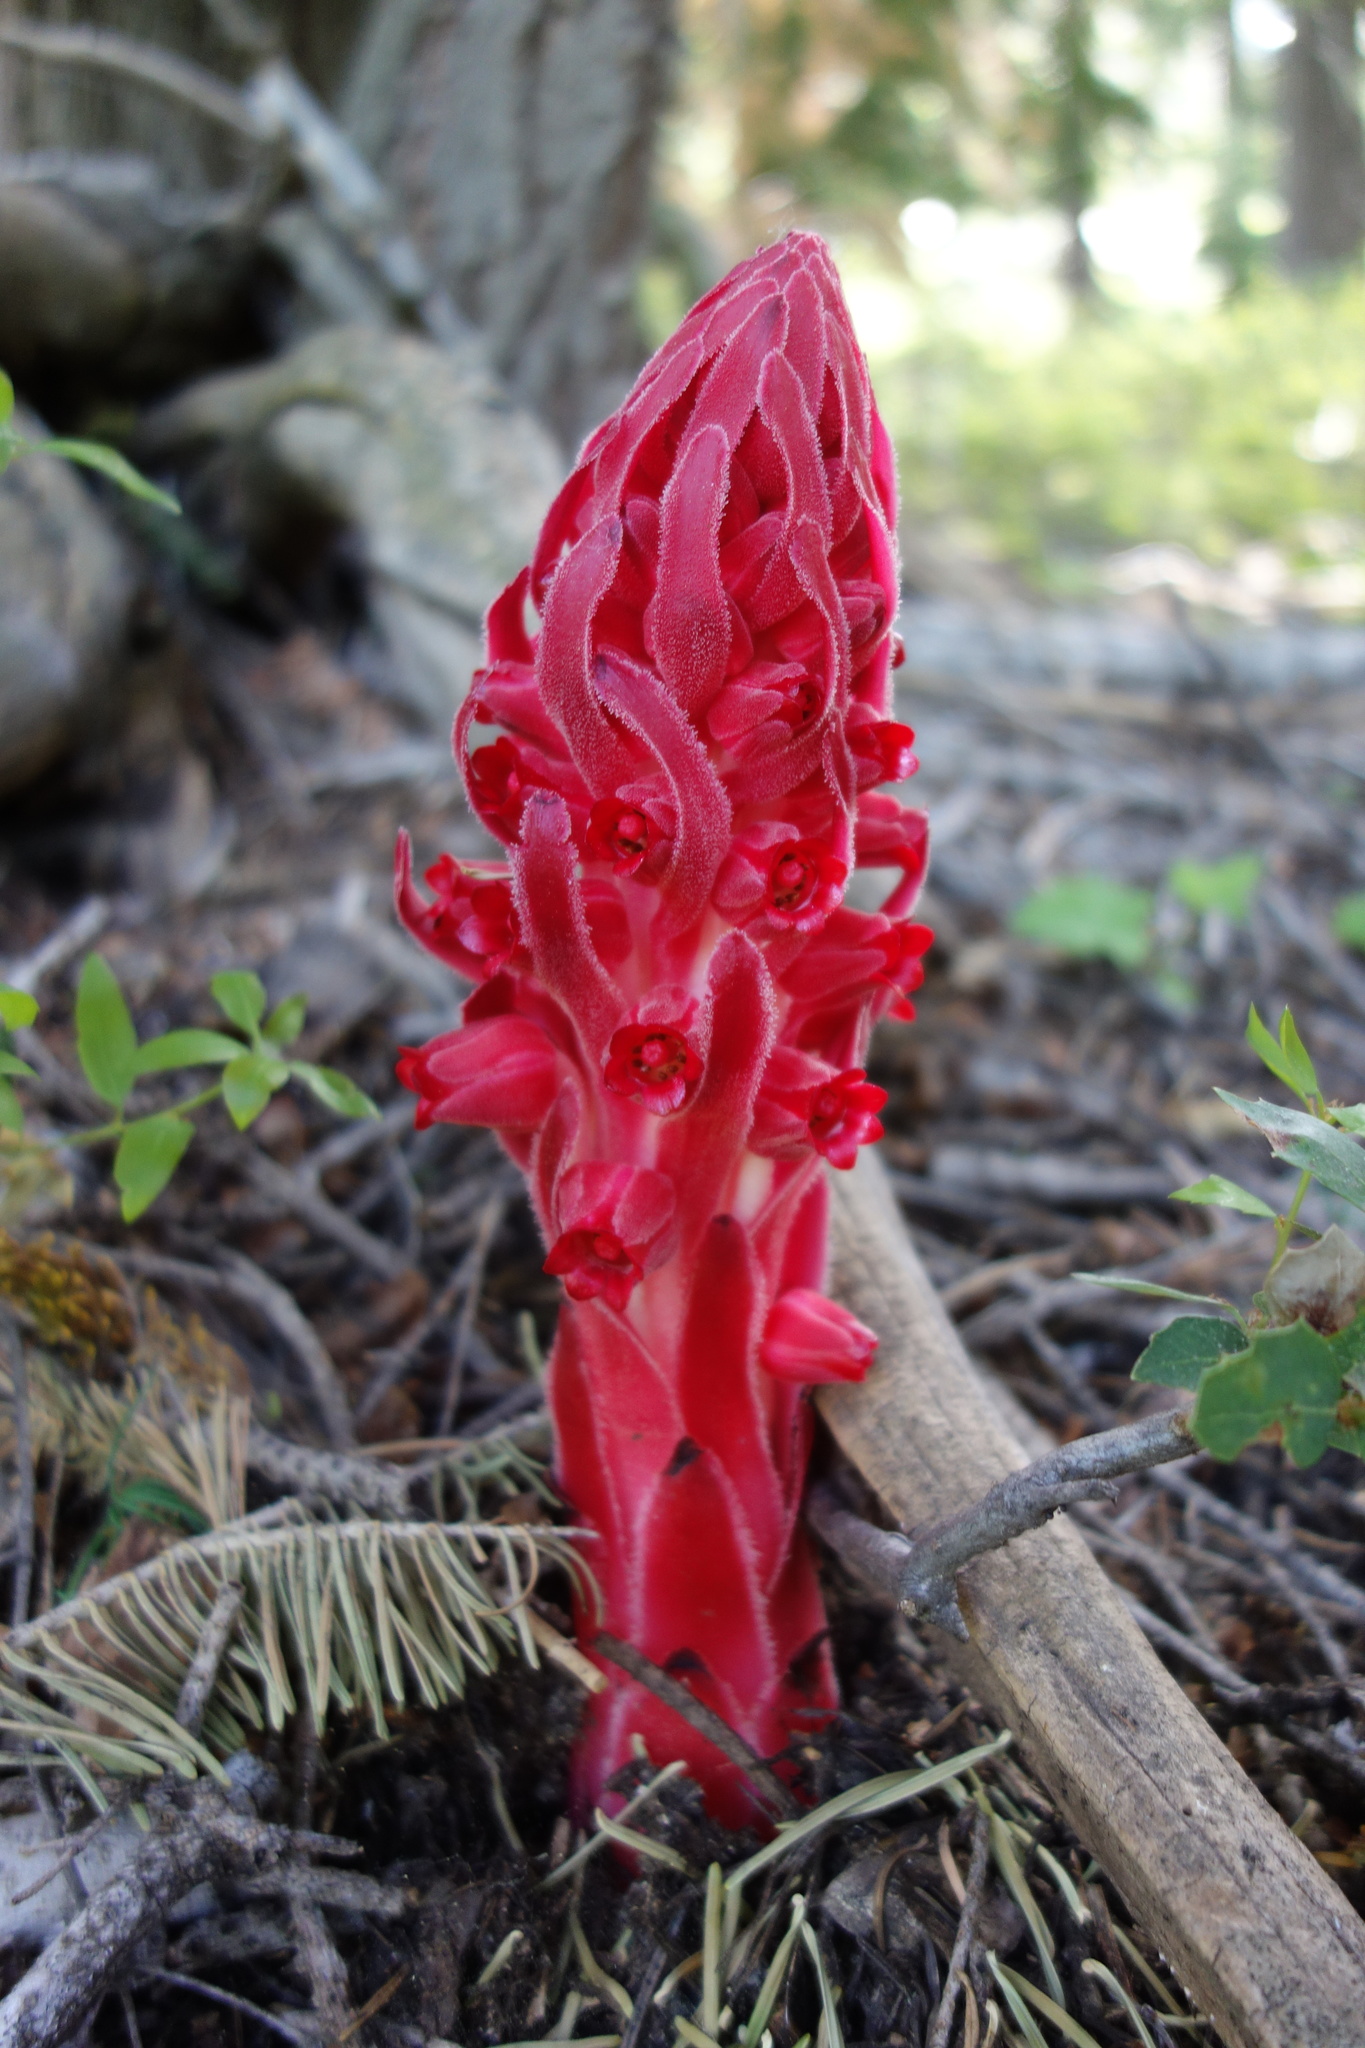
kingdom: Plantae
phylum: Tracheophyta
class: Magnoliopsida
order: Ericales
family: Ericaceae
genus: Sarcodes
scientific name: Sarcodes sanguinea
